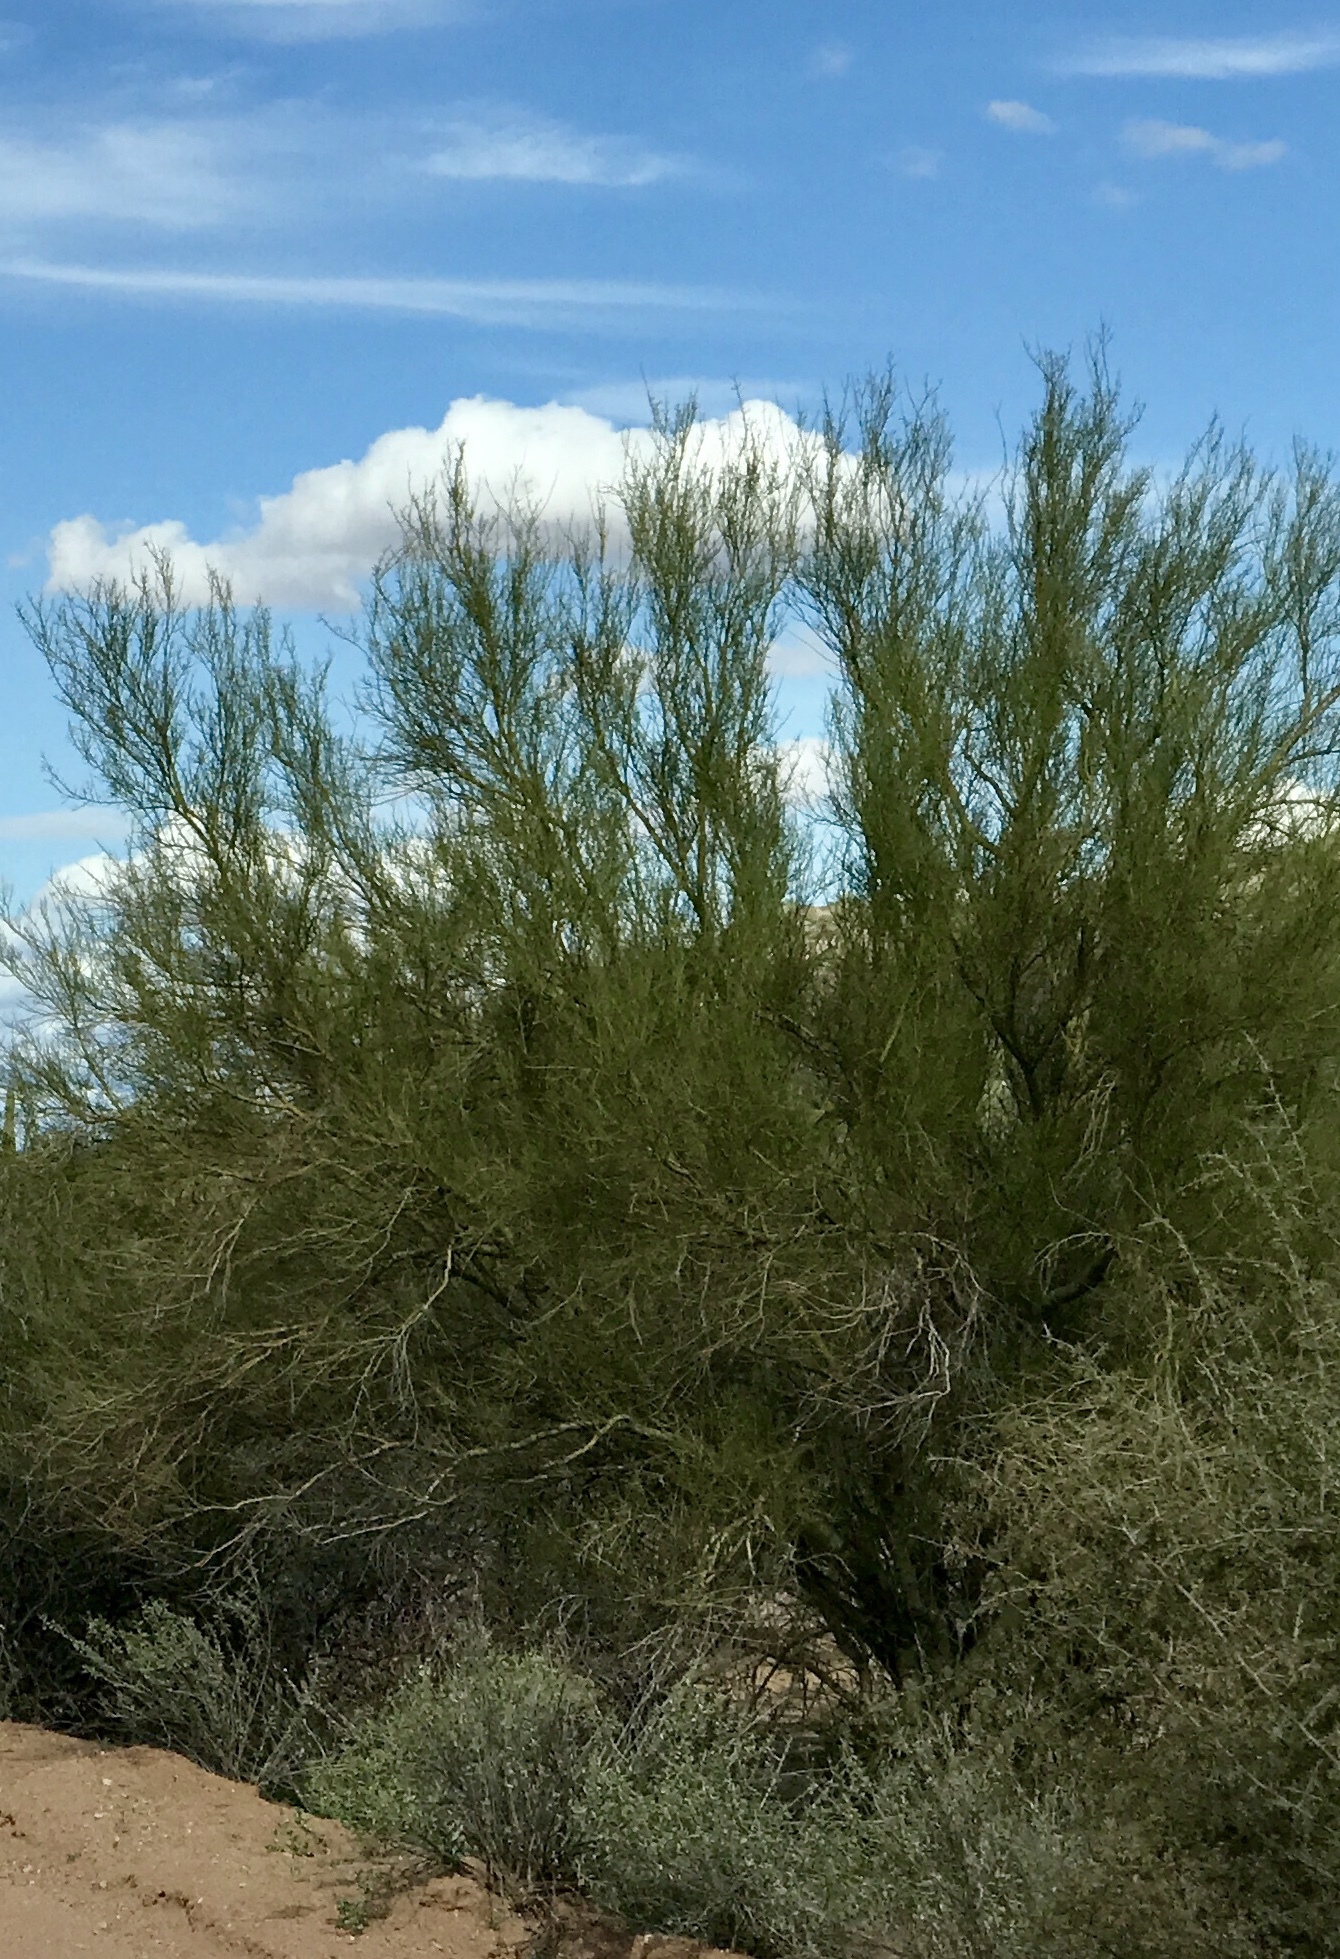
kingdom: Plantae
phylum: Tracheophyta
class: Magnoliopsida
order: Fabales
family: Fabaceae
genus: Parkinsonia
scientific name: Parkinsonia microphylla
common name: Yellow paloverde
